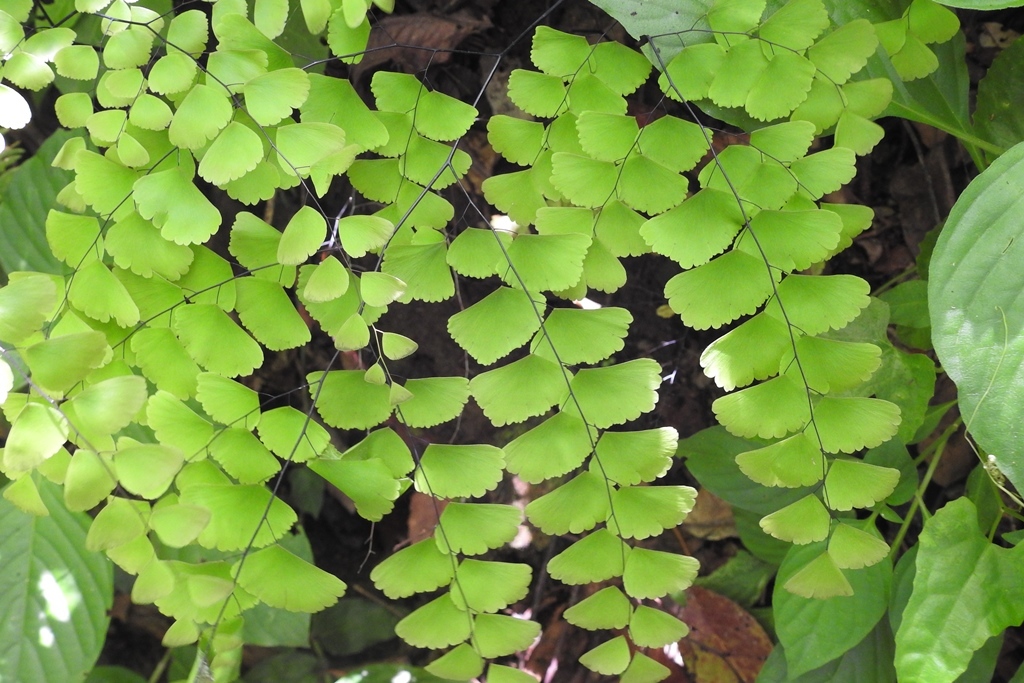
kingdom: Plantae
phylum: Tracheophyta
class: Polypodiopsida
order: Polypodiales
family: Pteridaceae
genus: Adiantum
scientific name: Adiantum amplum
